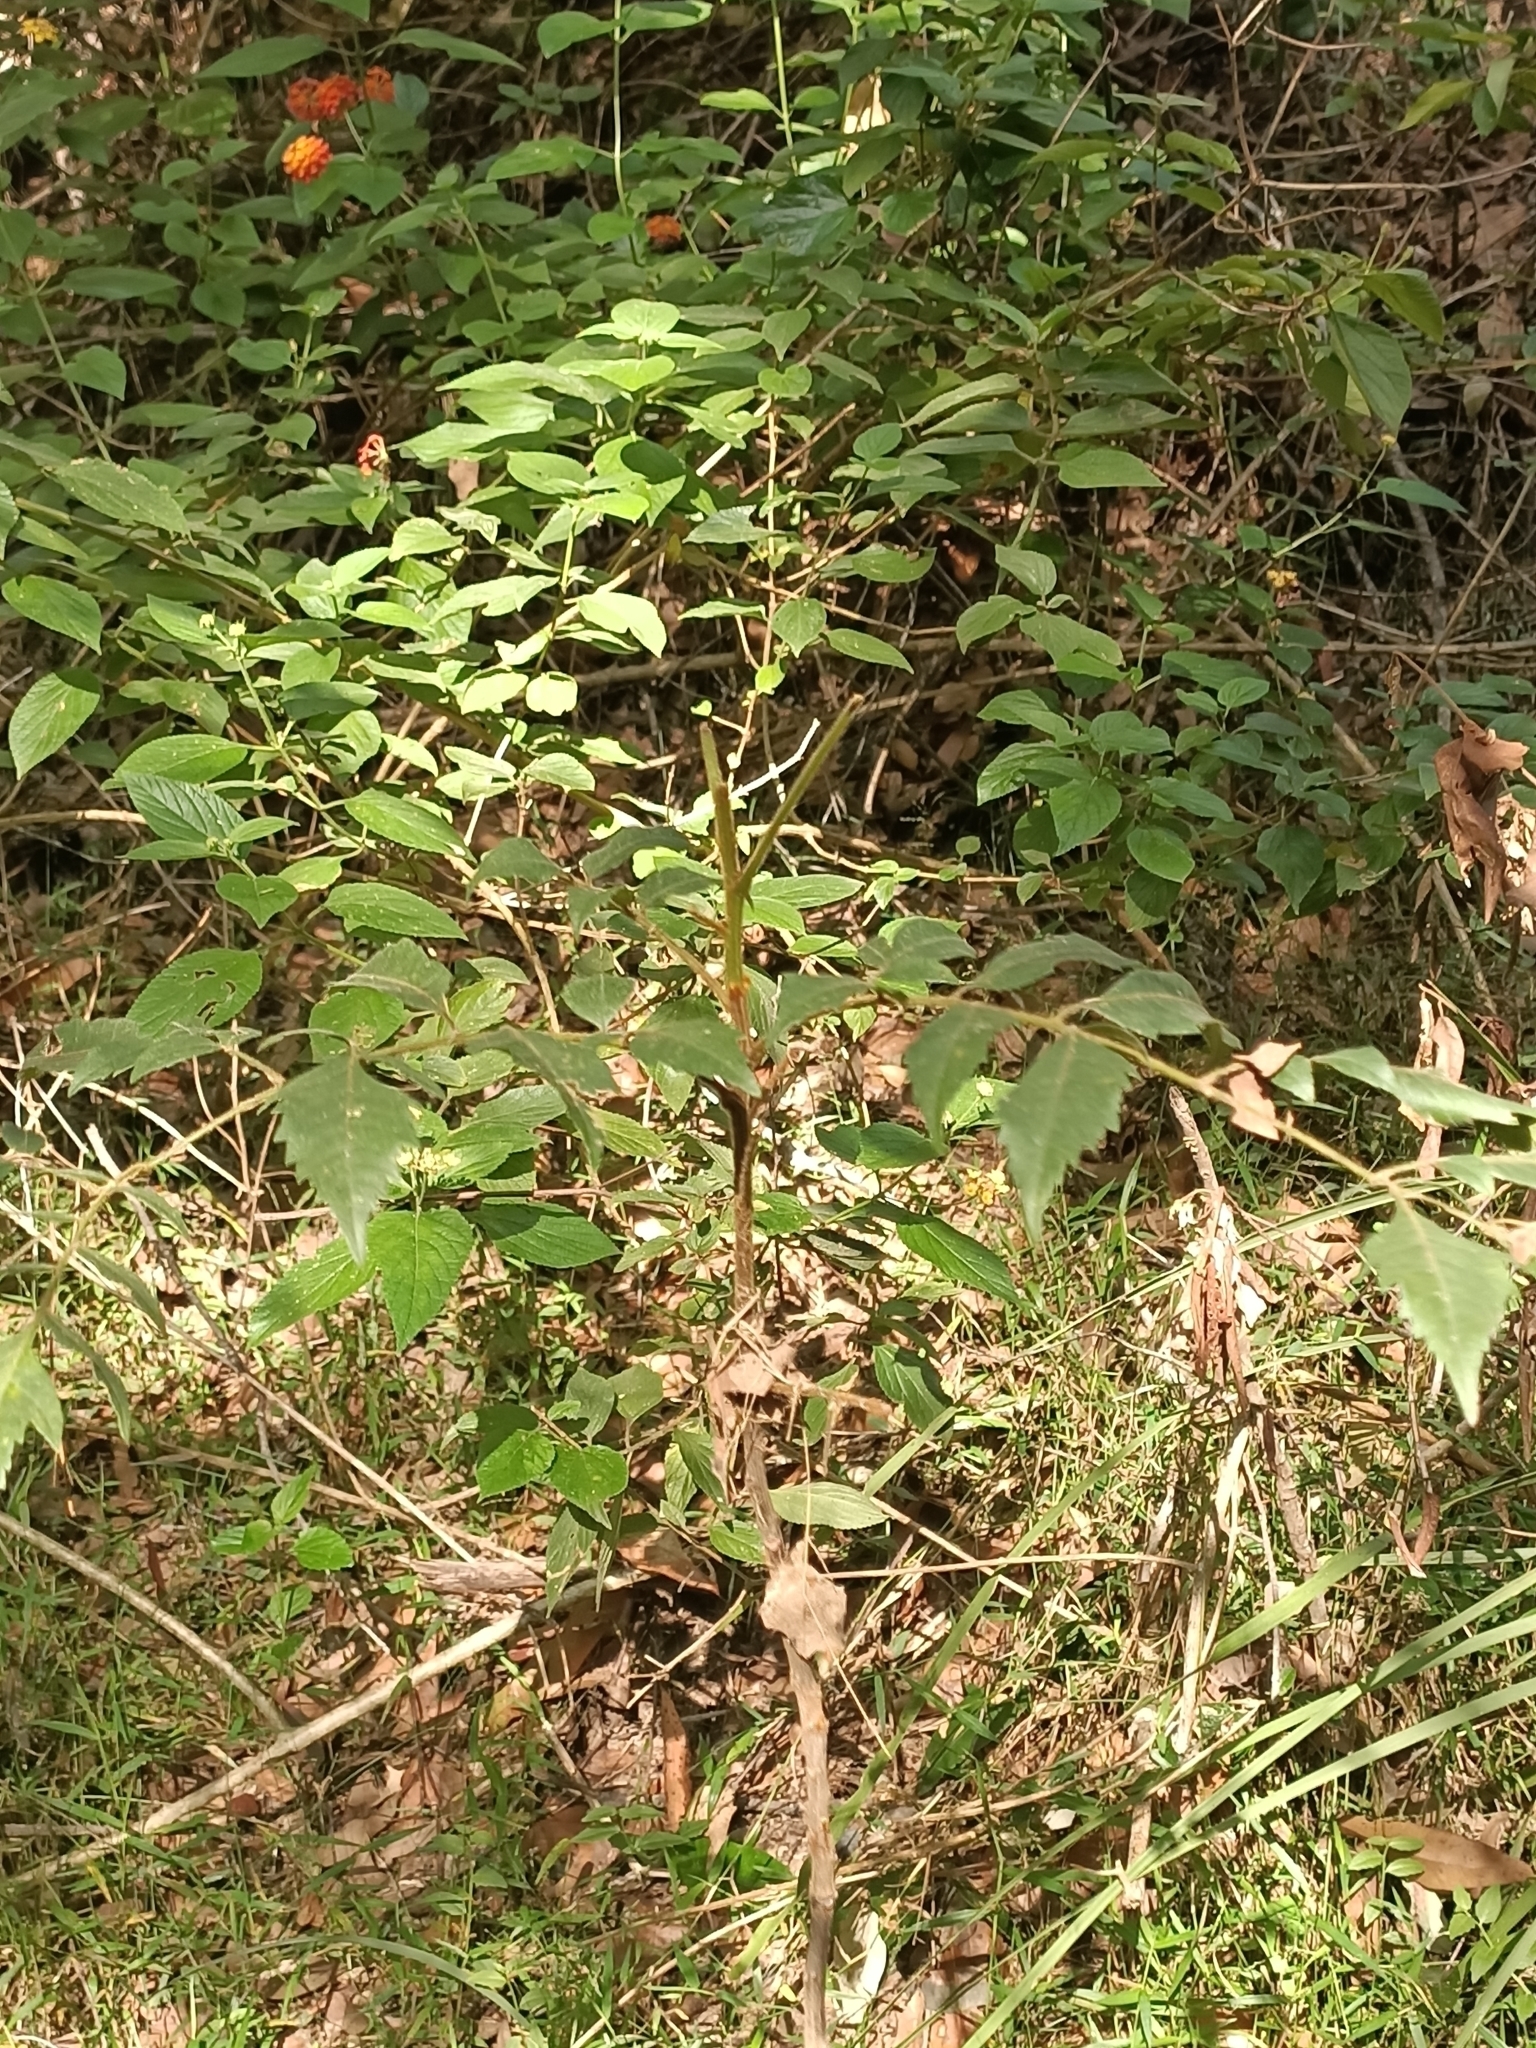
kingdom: Plantae
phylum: Tracheophyta
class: Magnoliopsida
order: Sapindales
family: Sapindaceae
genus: Jagera
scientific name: Jagera pseudorhus
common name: Fern-leaf-tamarind
